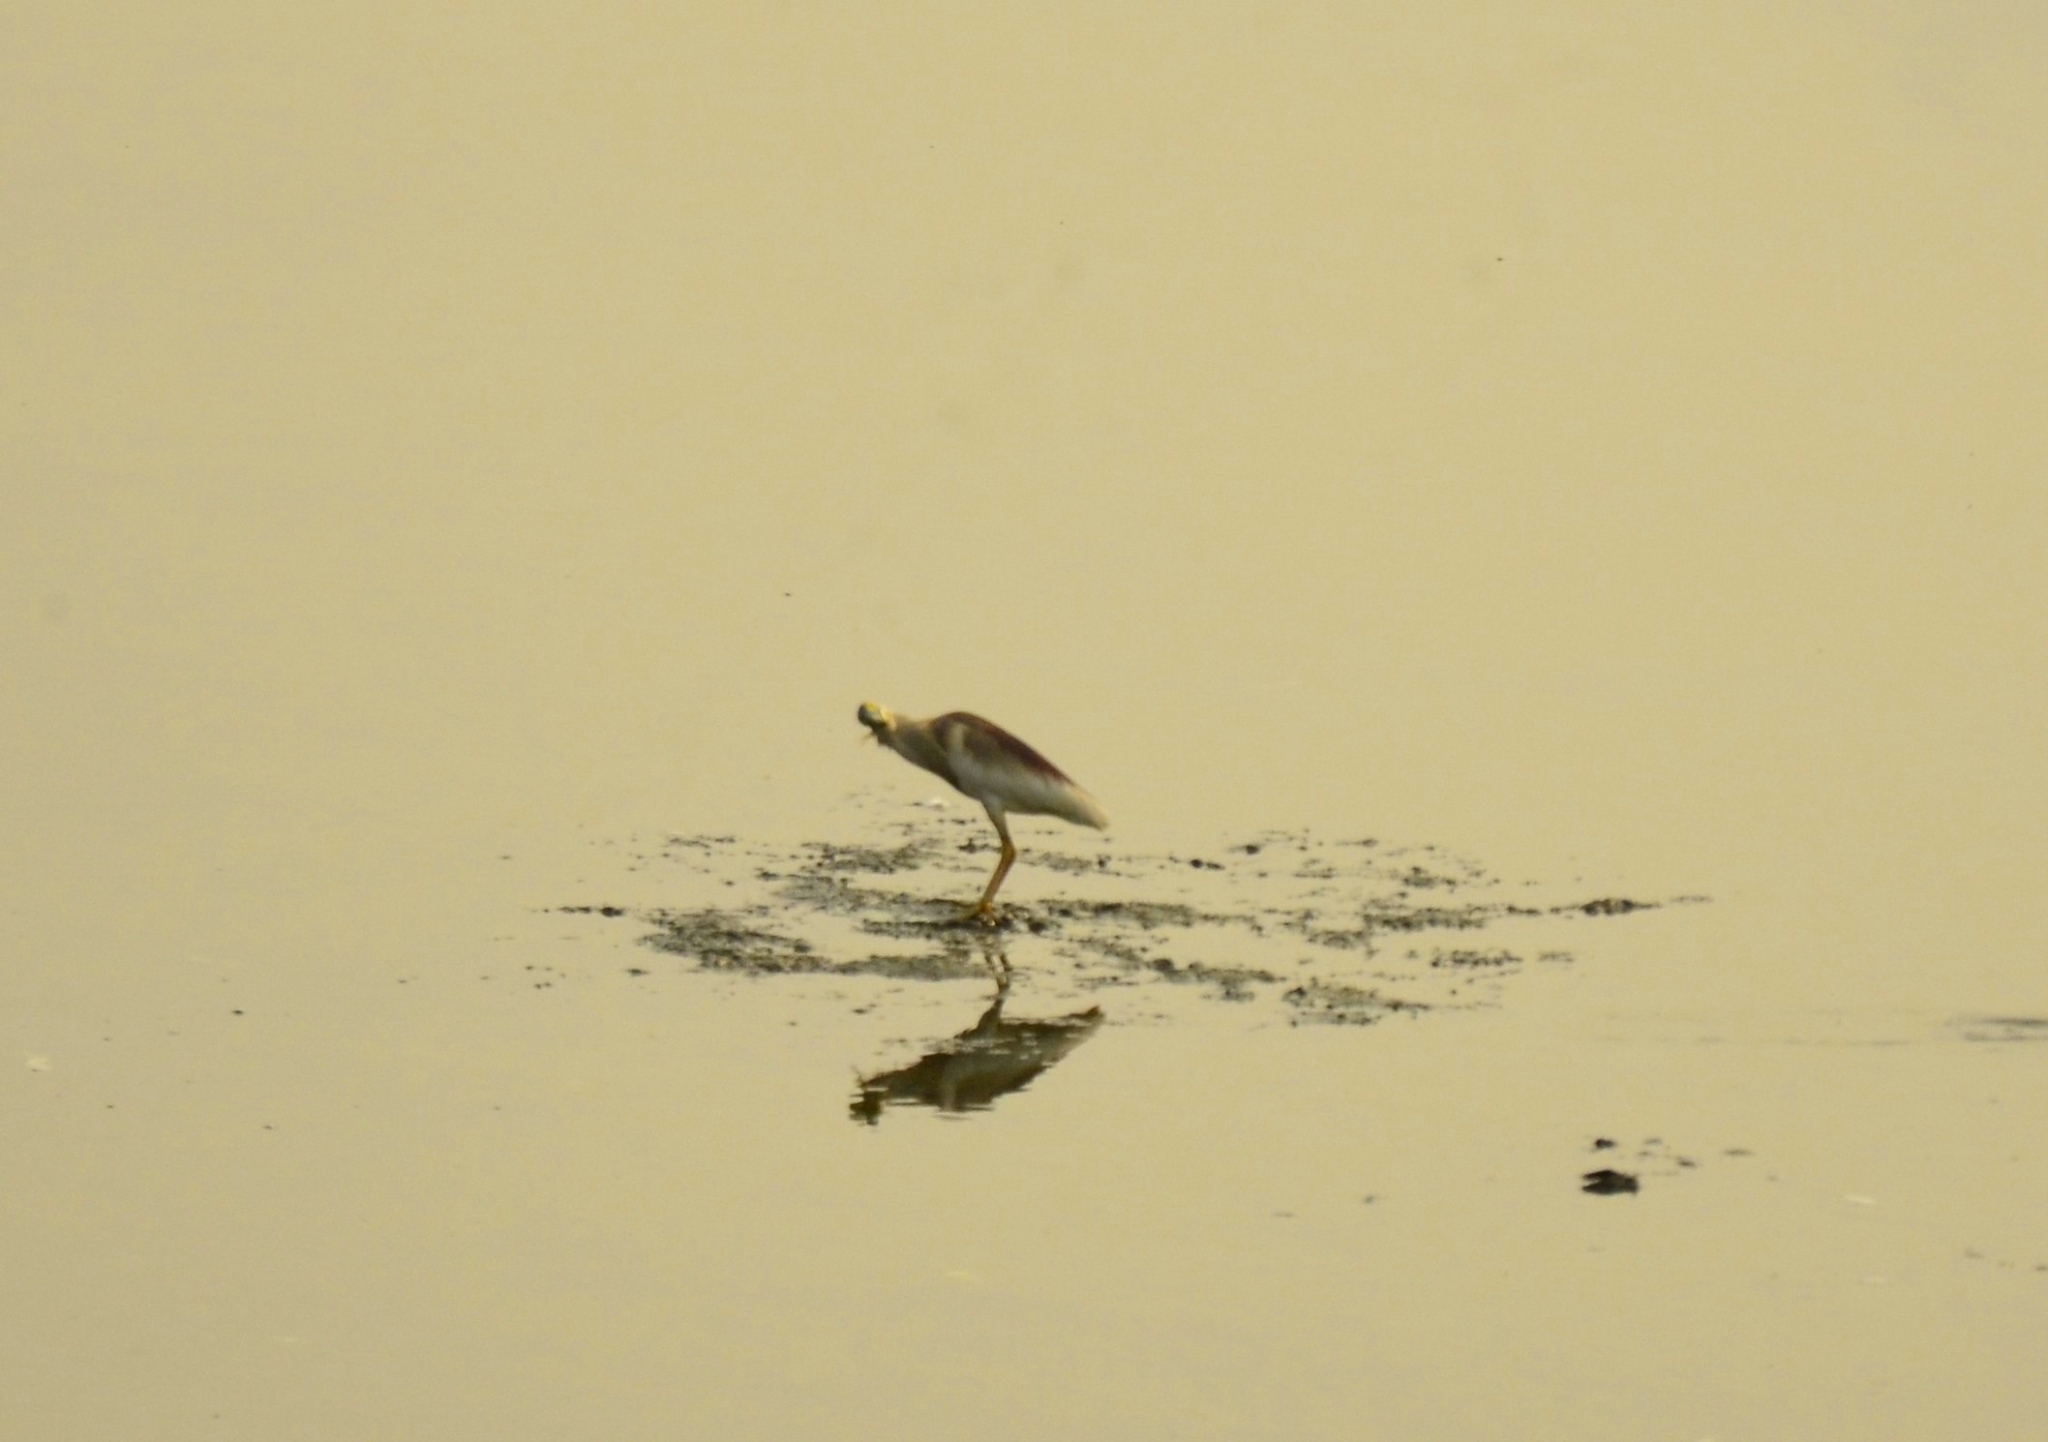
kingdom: Animalia
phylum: Chordata
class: Aves
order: Pelecaniformes
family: Ardeidae
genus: Ardeola
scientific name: Ardeola grayii
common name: Indian pond heron
